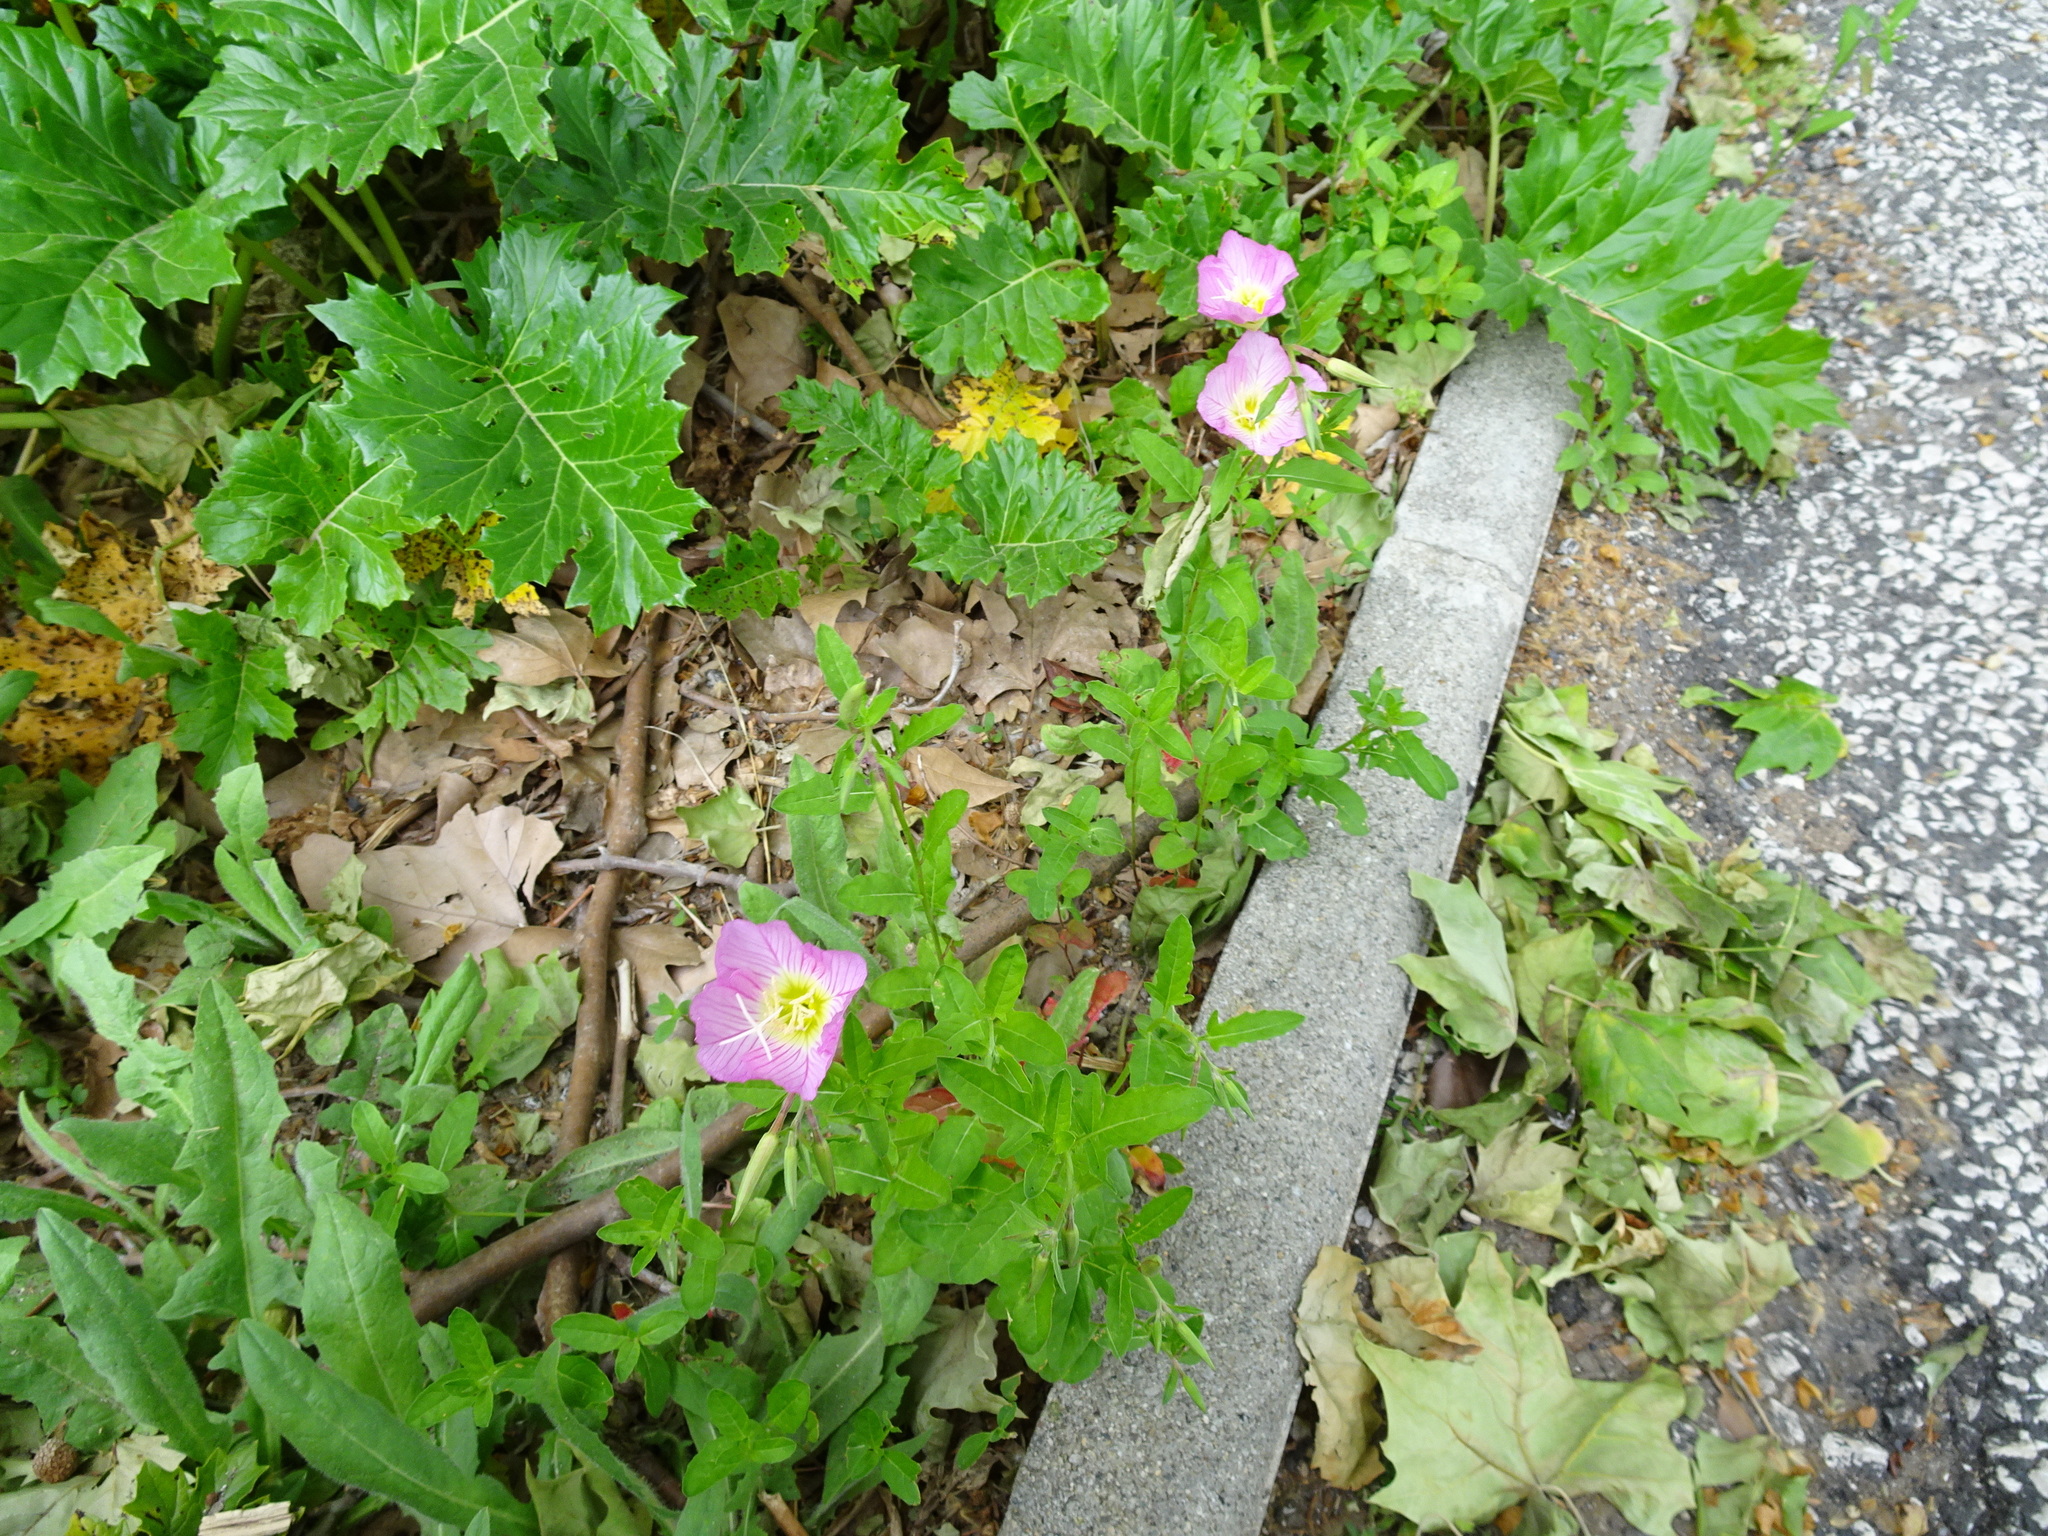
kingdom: Plantae
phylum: Tracheophyta
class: Magnoliopsida
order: Myrtales
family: Onagraceae
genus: Oenothera
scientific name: Oenothera speciosa
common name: White evening-primrose
